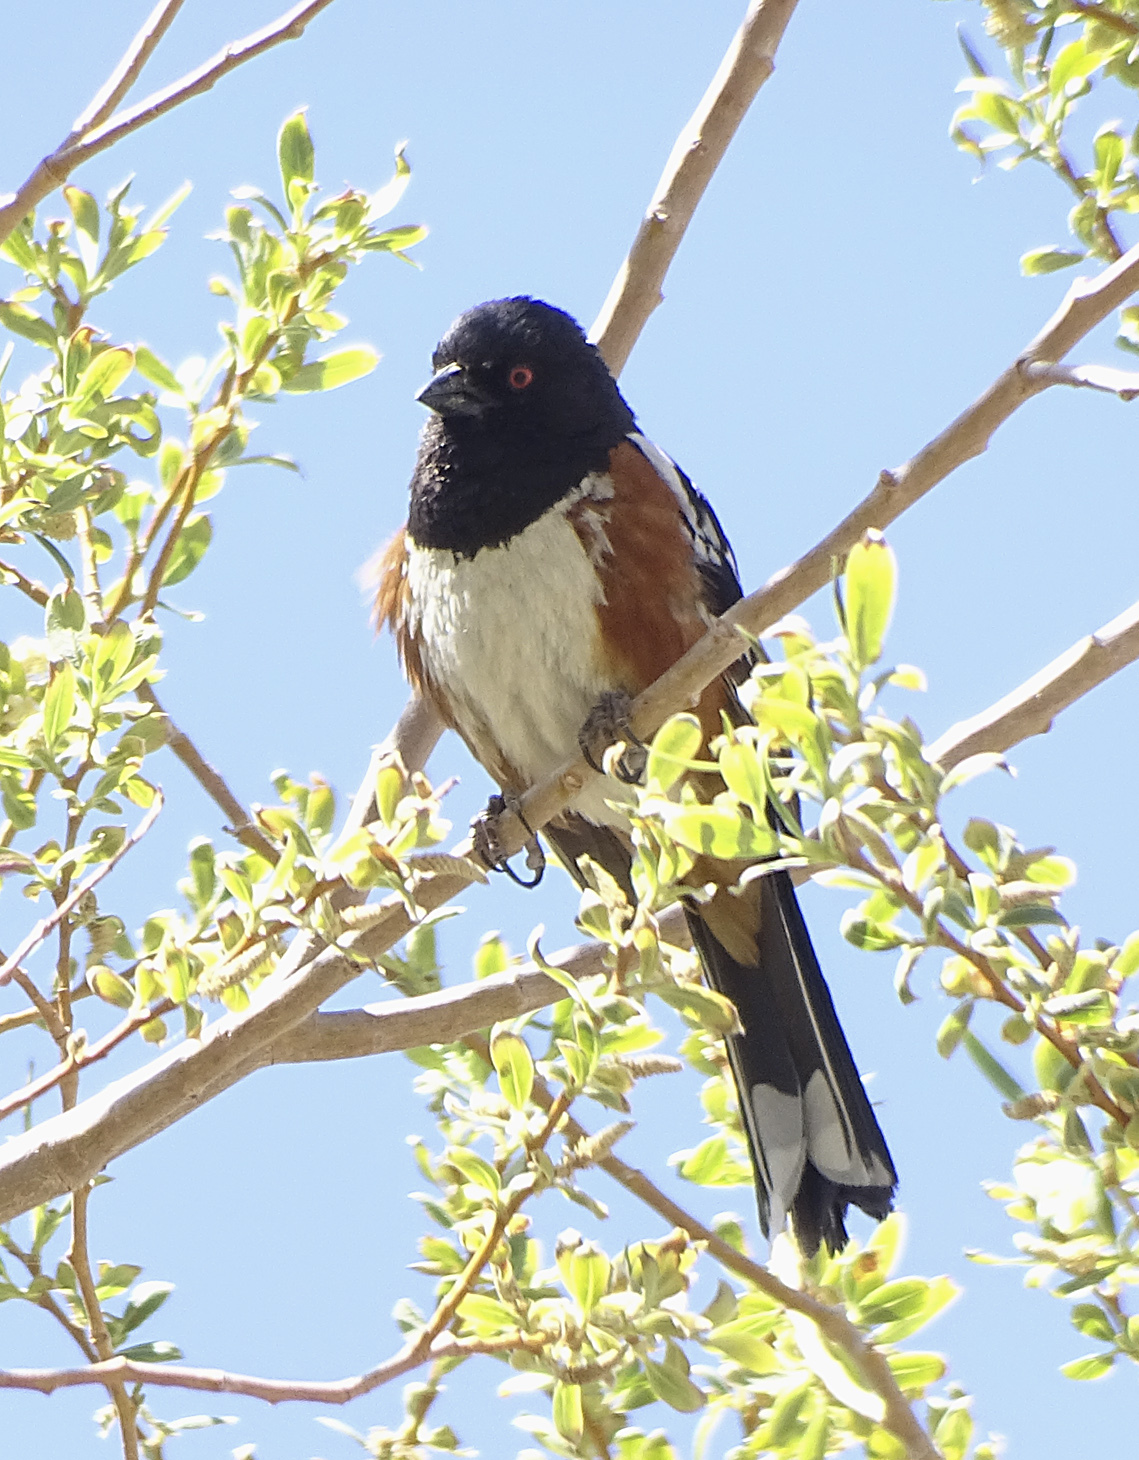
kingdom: Animalia
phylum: Chordata
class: Aves
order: Passeriformes
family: Passerellidae
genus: Pipilo
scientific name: Pipilo maculatus
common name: Spotted towhee
